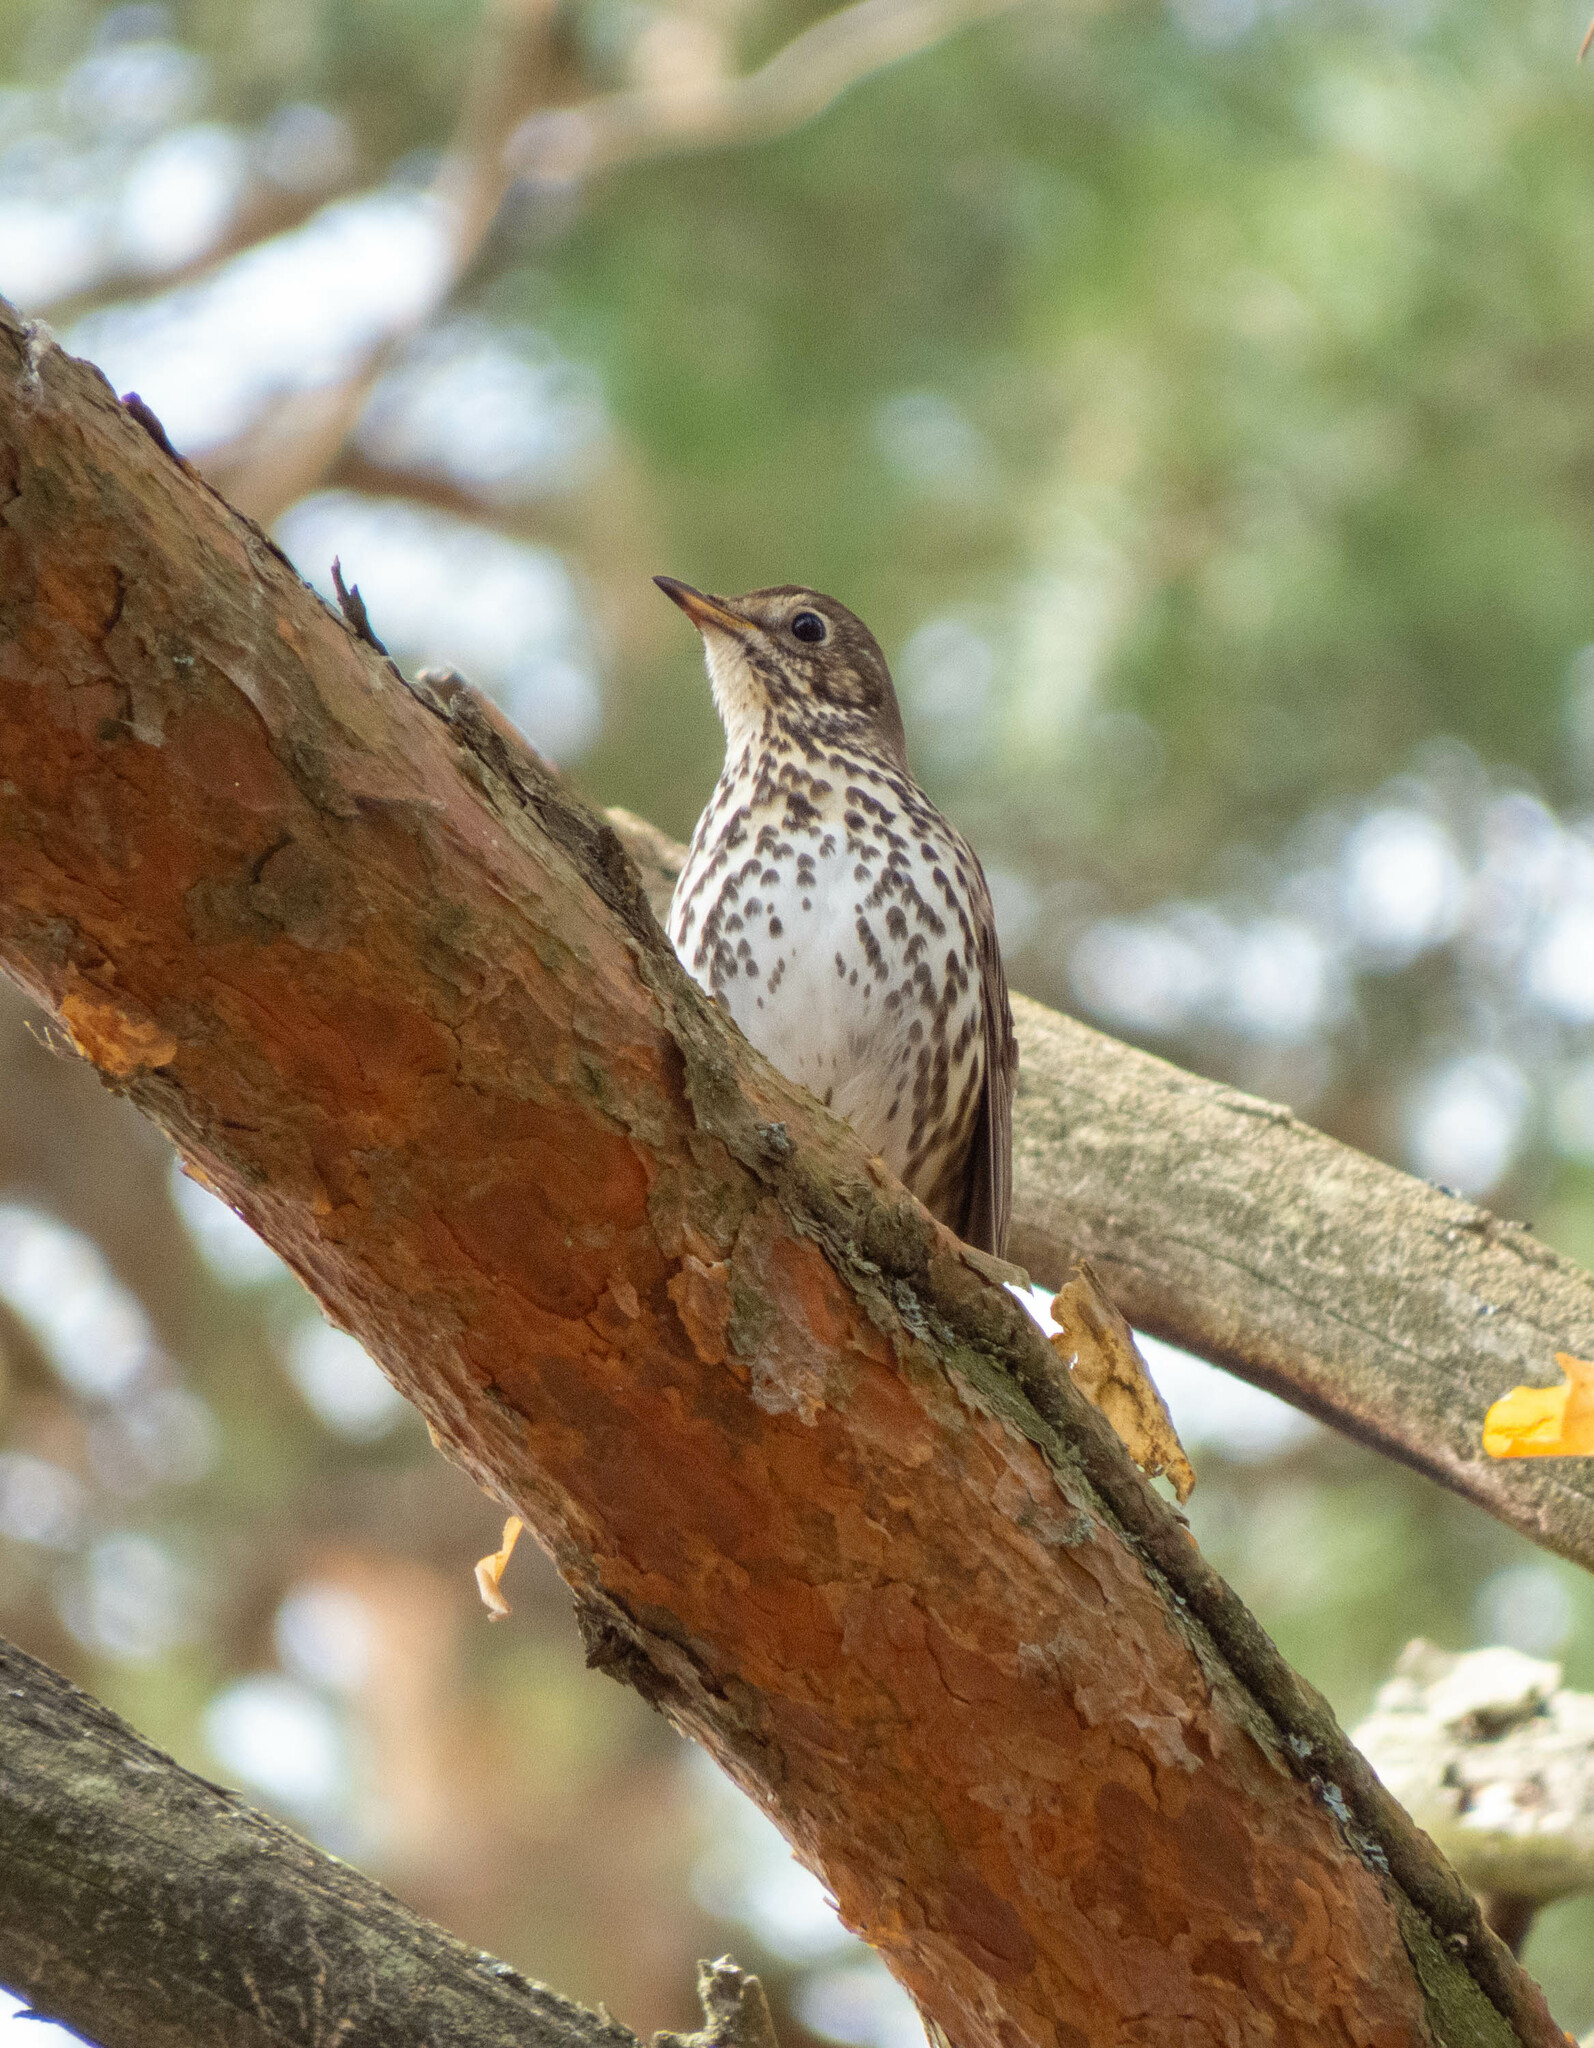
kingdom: Animalia
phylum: Chordata
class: Aves
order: Passeriformes
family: Turdidae
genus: Turdus
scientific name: Turdus philomelos
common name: Song thrush
